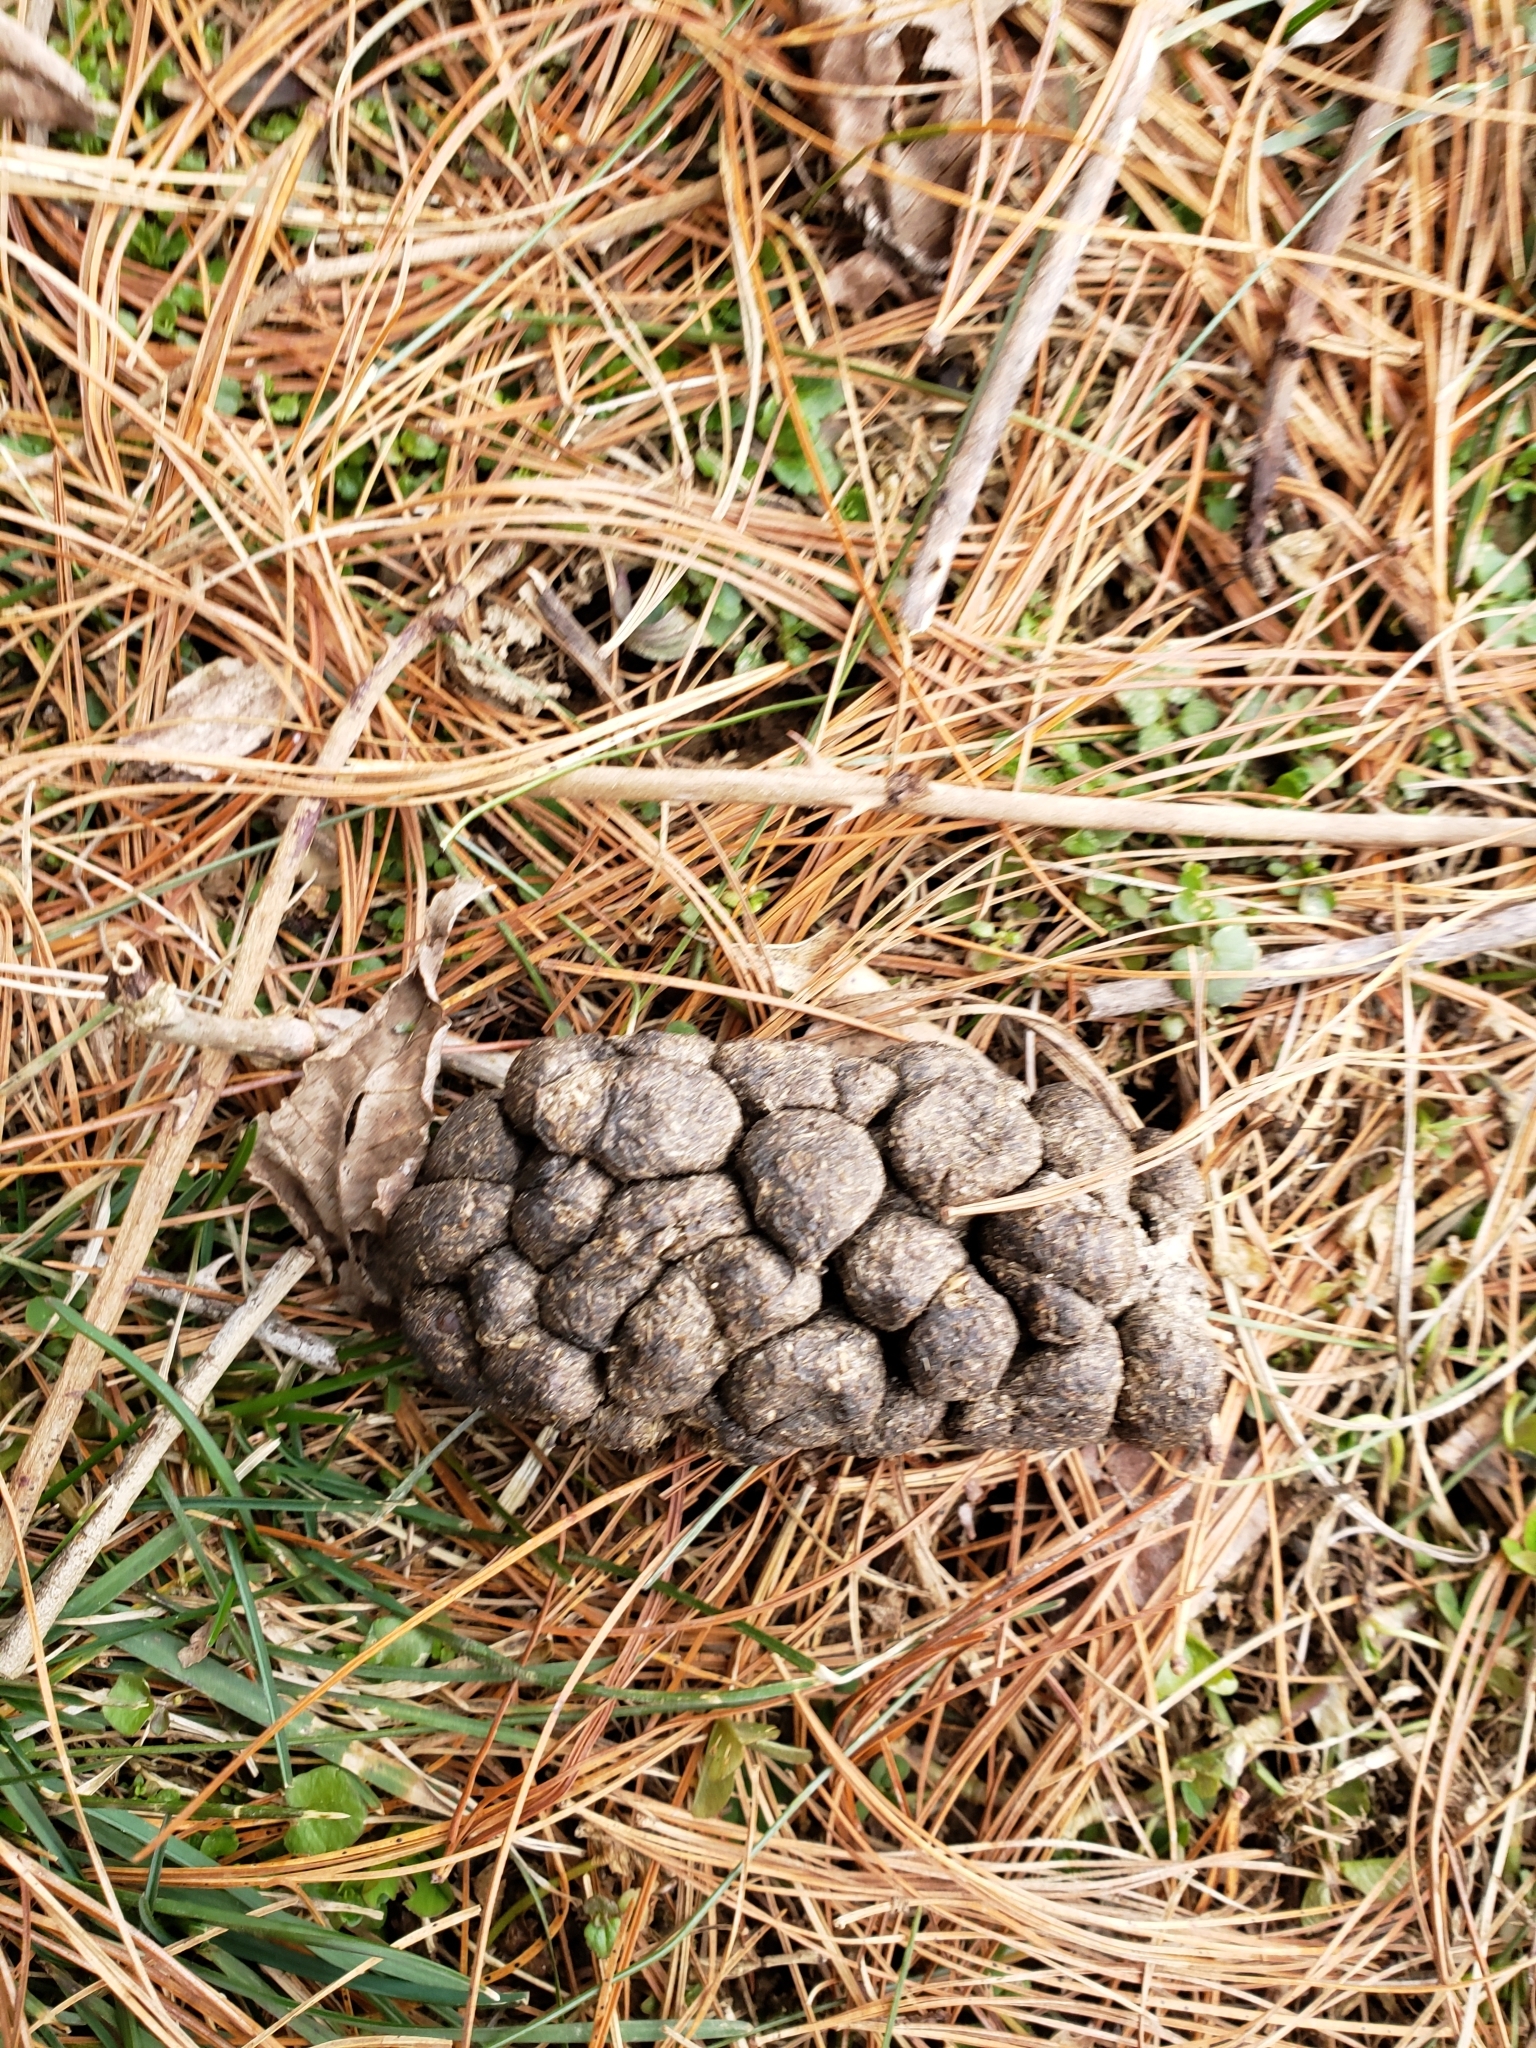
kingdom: Animalia
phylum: Chordata
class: Mammalia
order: Artiodactyla
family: Cervidae
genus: Odocoileus
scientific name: Odocoileus virginianus
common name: White-tailed deer
